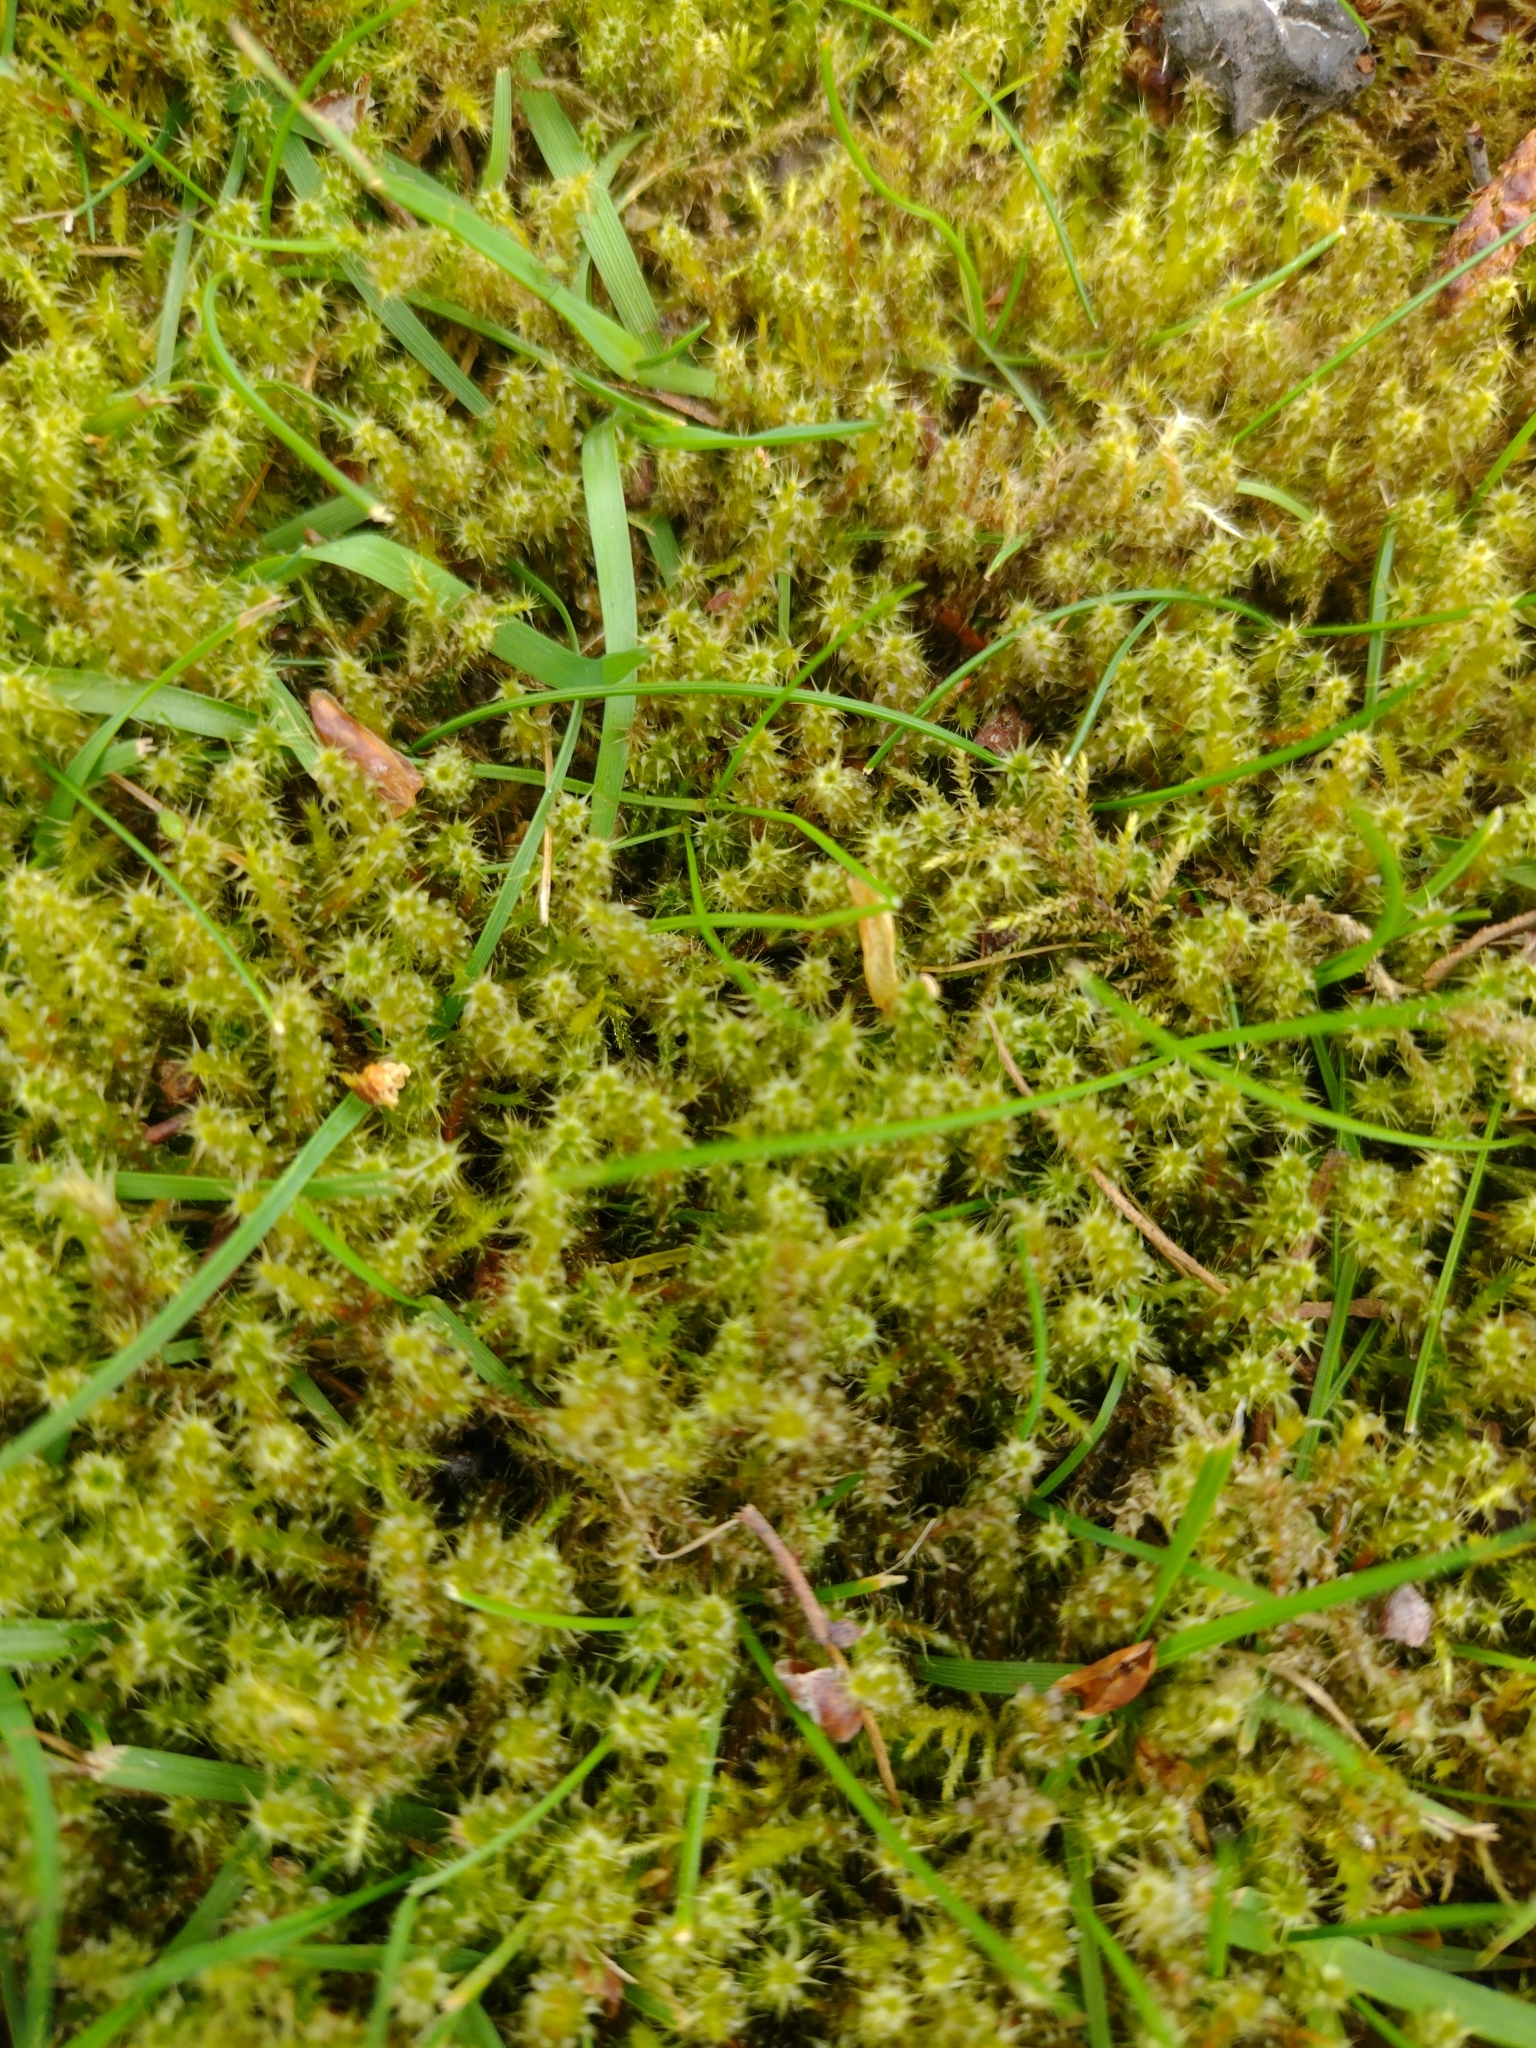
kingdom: Plantae
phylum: Bryophyta
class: Bryopsida
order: Hypnales
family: Hylocomiaceae
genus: Rhytidiadelphus
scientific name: Rhytidiadelphus squarrosus
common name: Springy turf-moss
